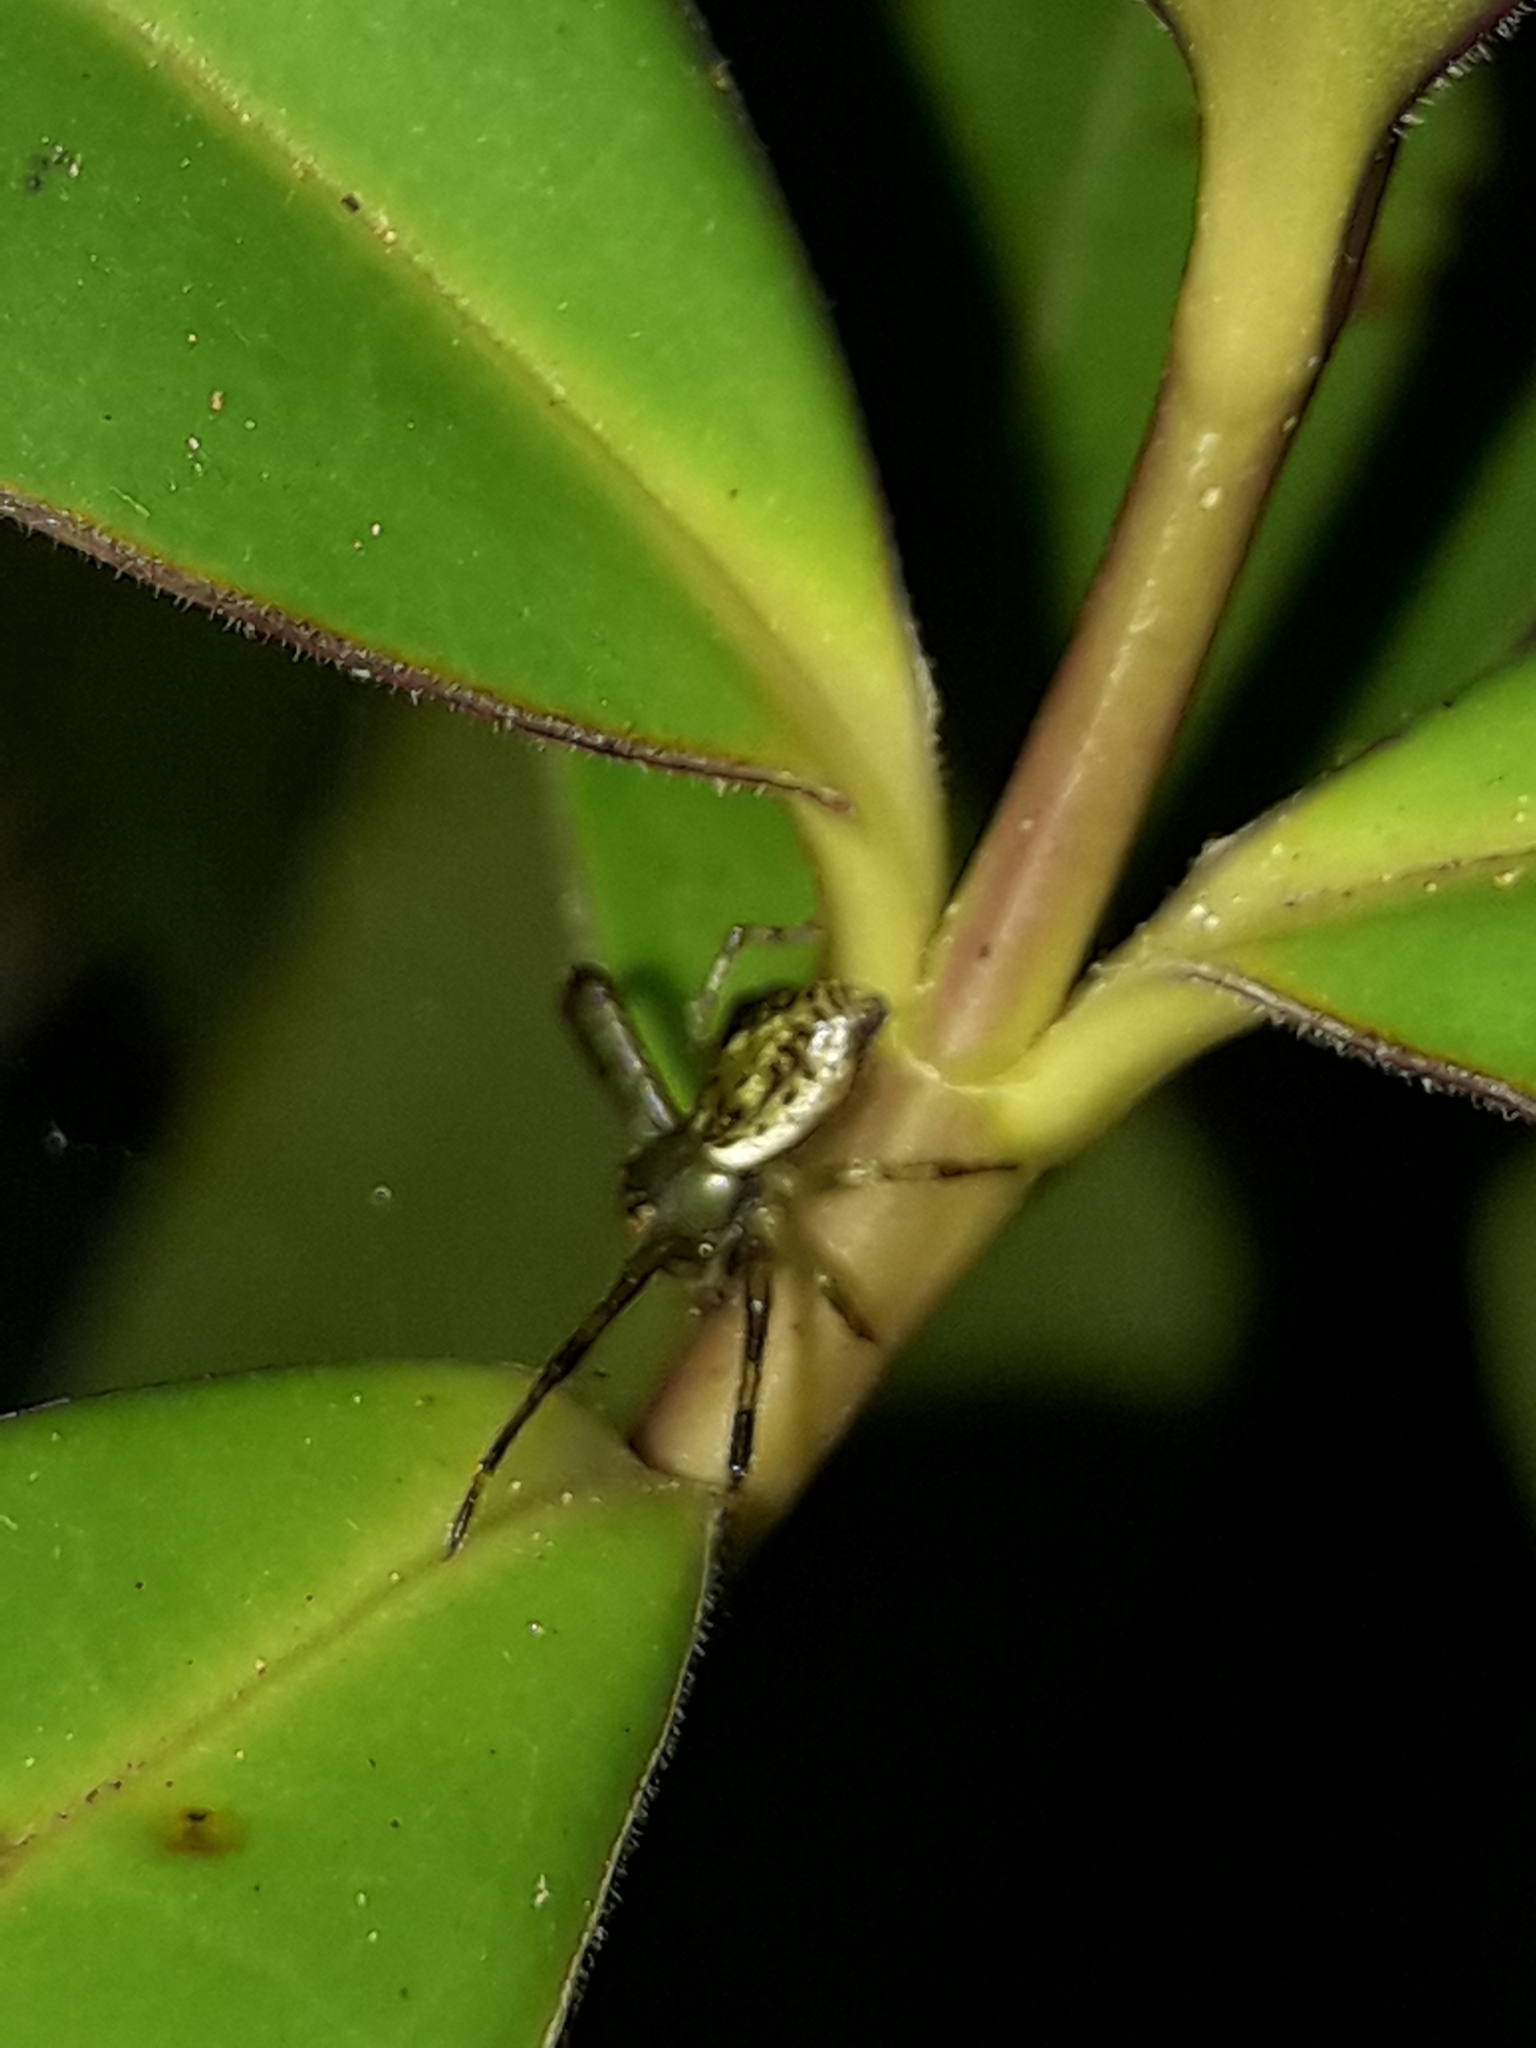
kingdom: Animalia
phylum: Arthropoda
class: Arachnida
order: Araneae
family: Thomisidae
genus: Diaea
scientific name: Diaea ambara
